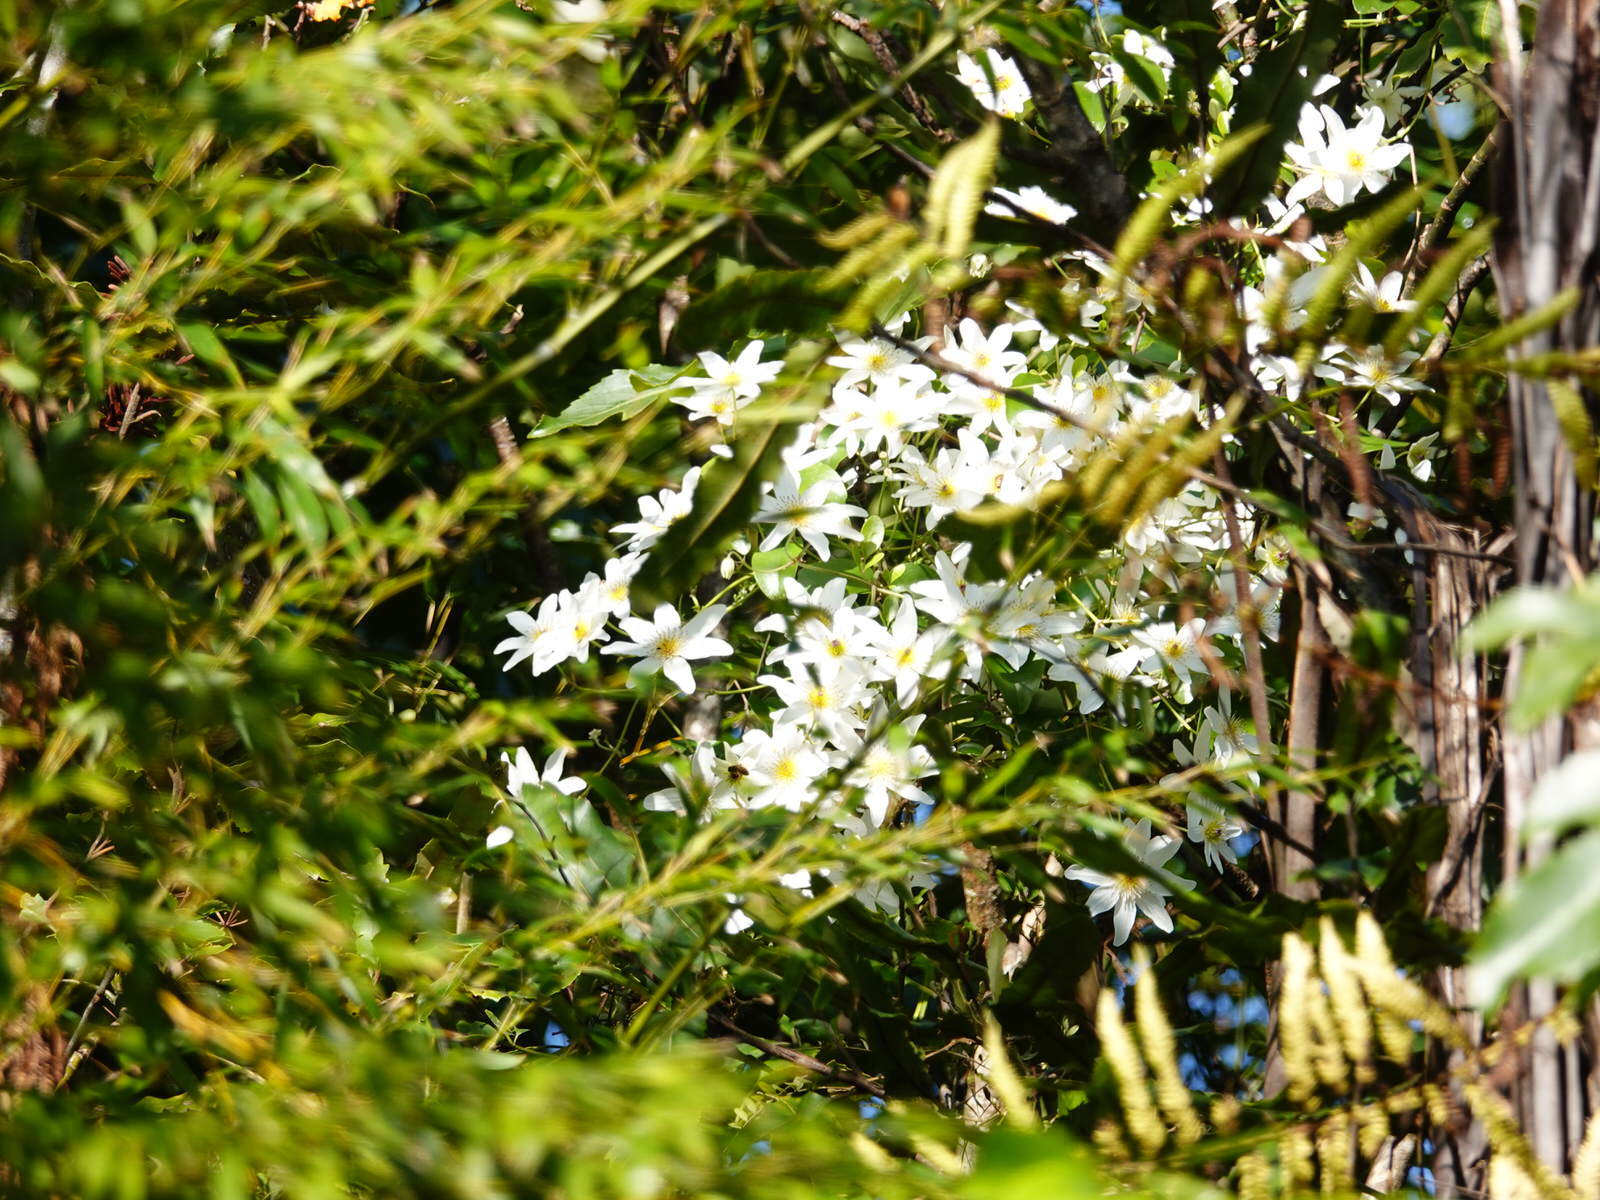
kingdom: Plantae
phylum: Tracheophyta
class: Magnoliopsida
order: Ranunculales
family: Ranunculaceae
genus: Clematis
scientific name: Clematis paniculata
